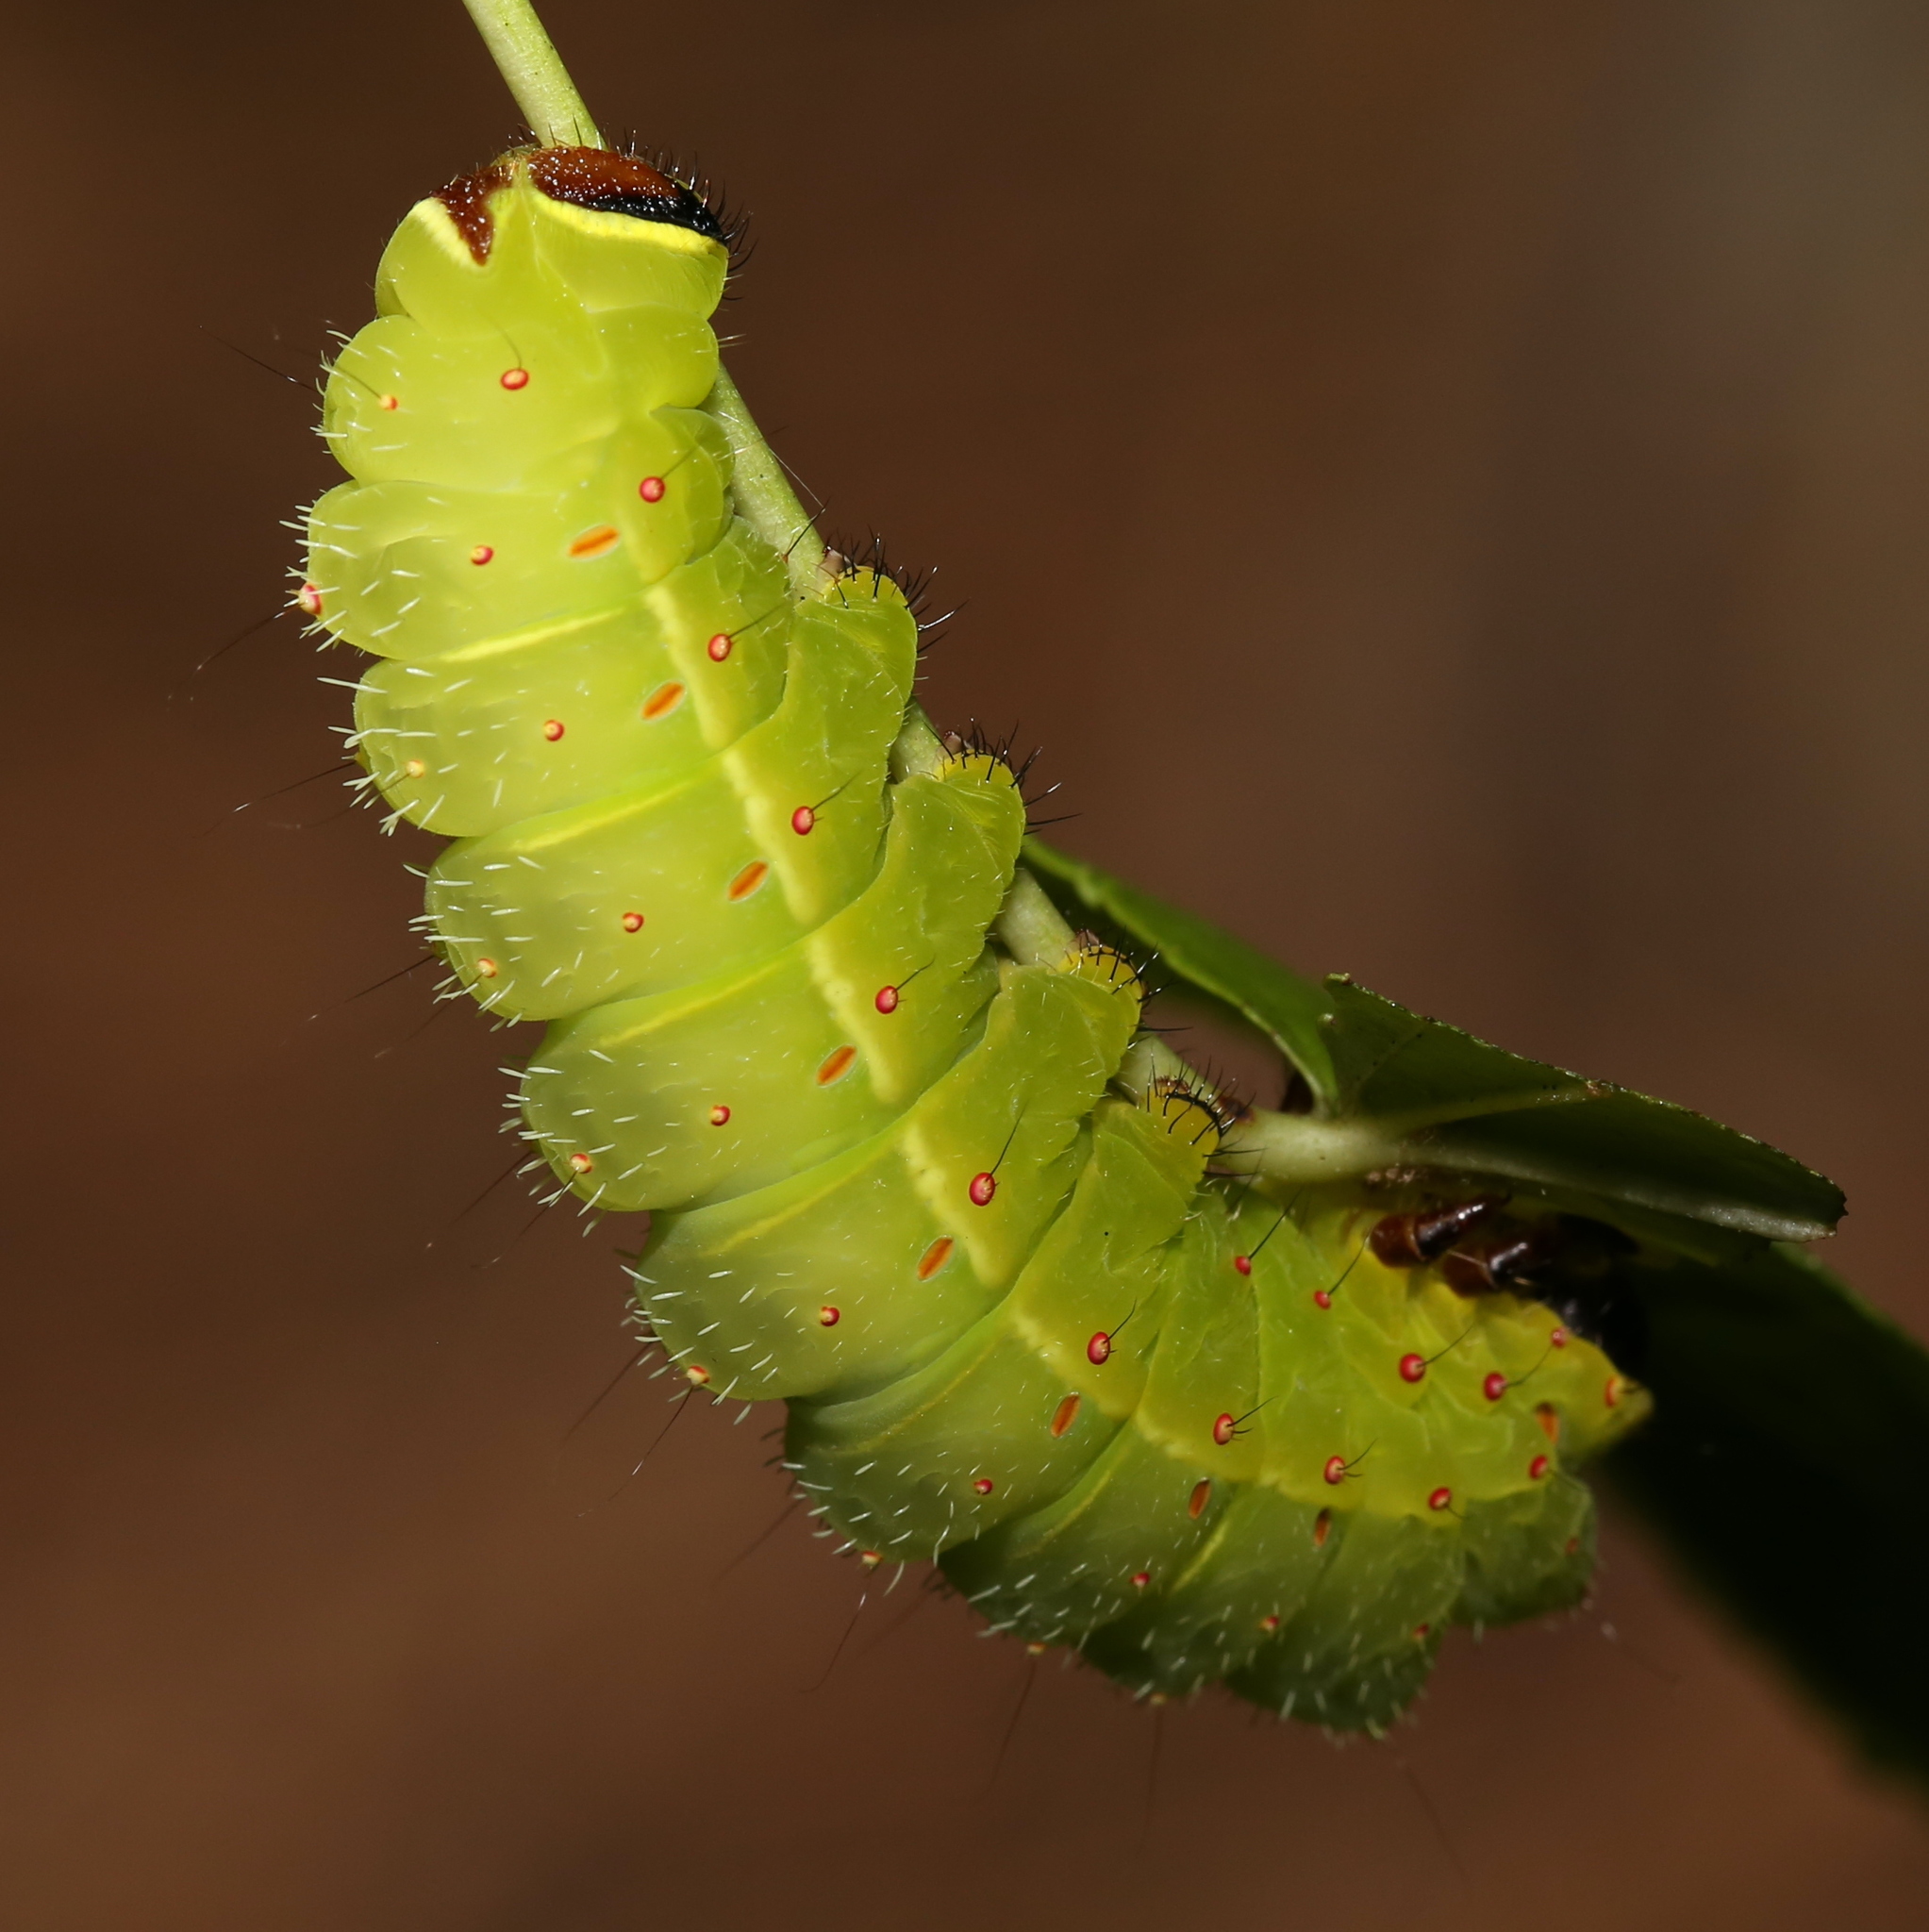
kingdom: Animalia
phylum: Arthropoda
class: Insecta
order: Lepidoptera
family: Saturniidae
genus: Actias
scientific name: Actias luna
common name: Luna moth
